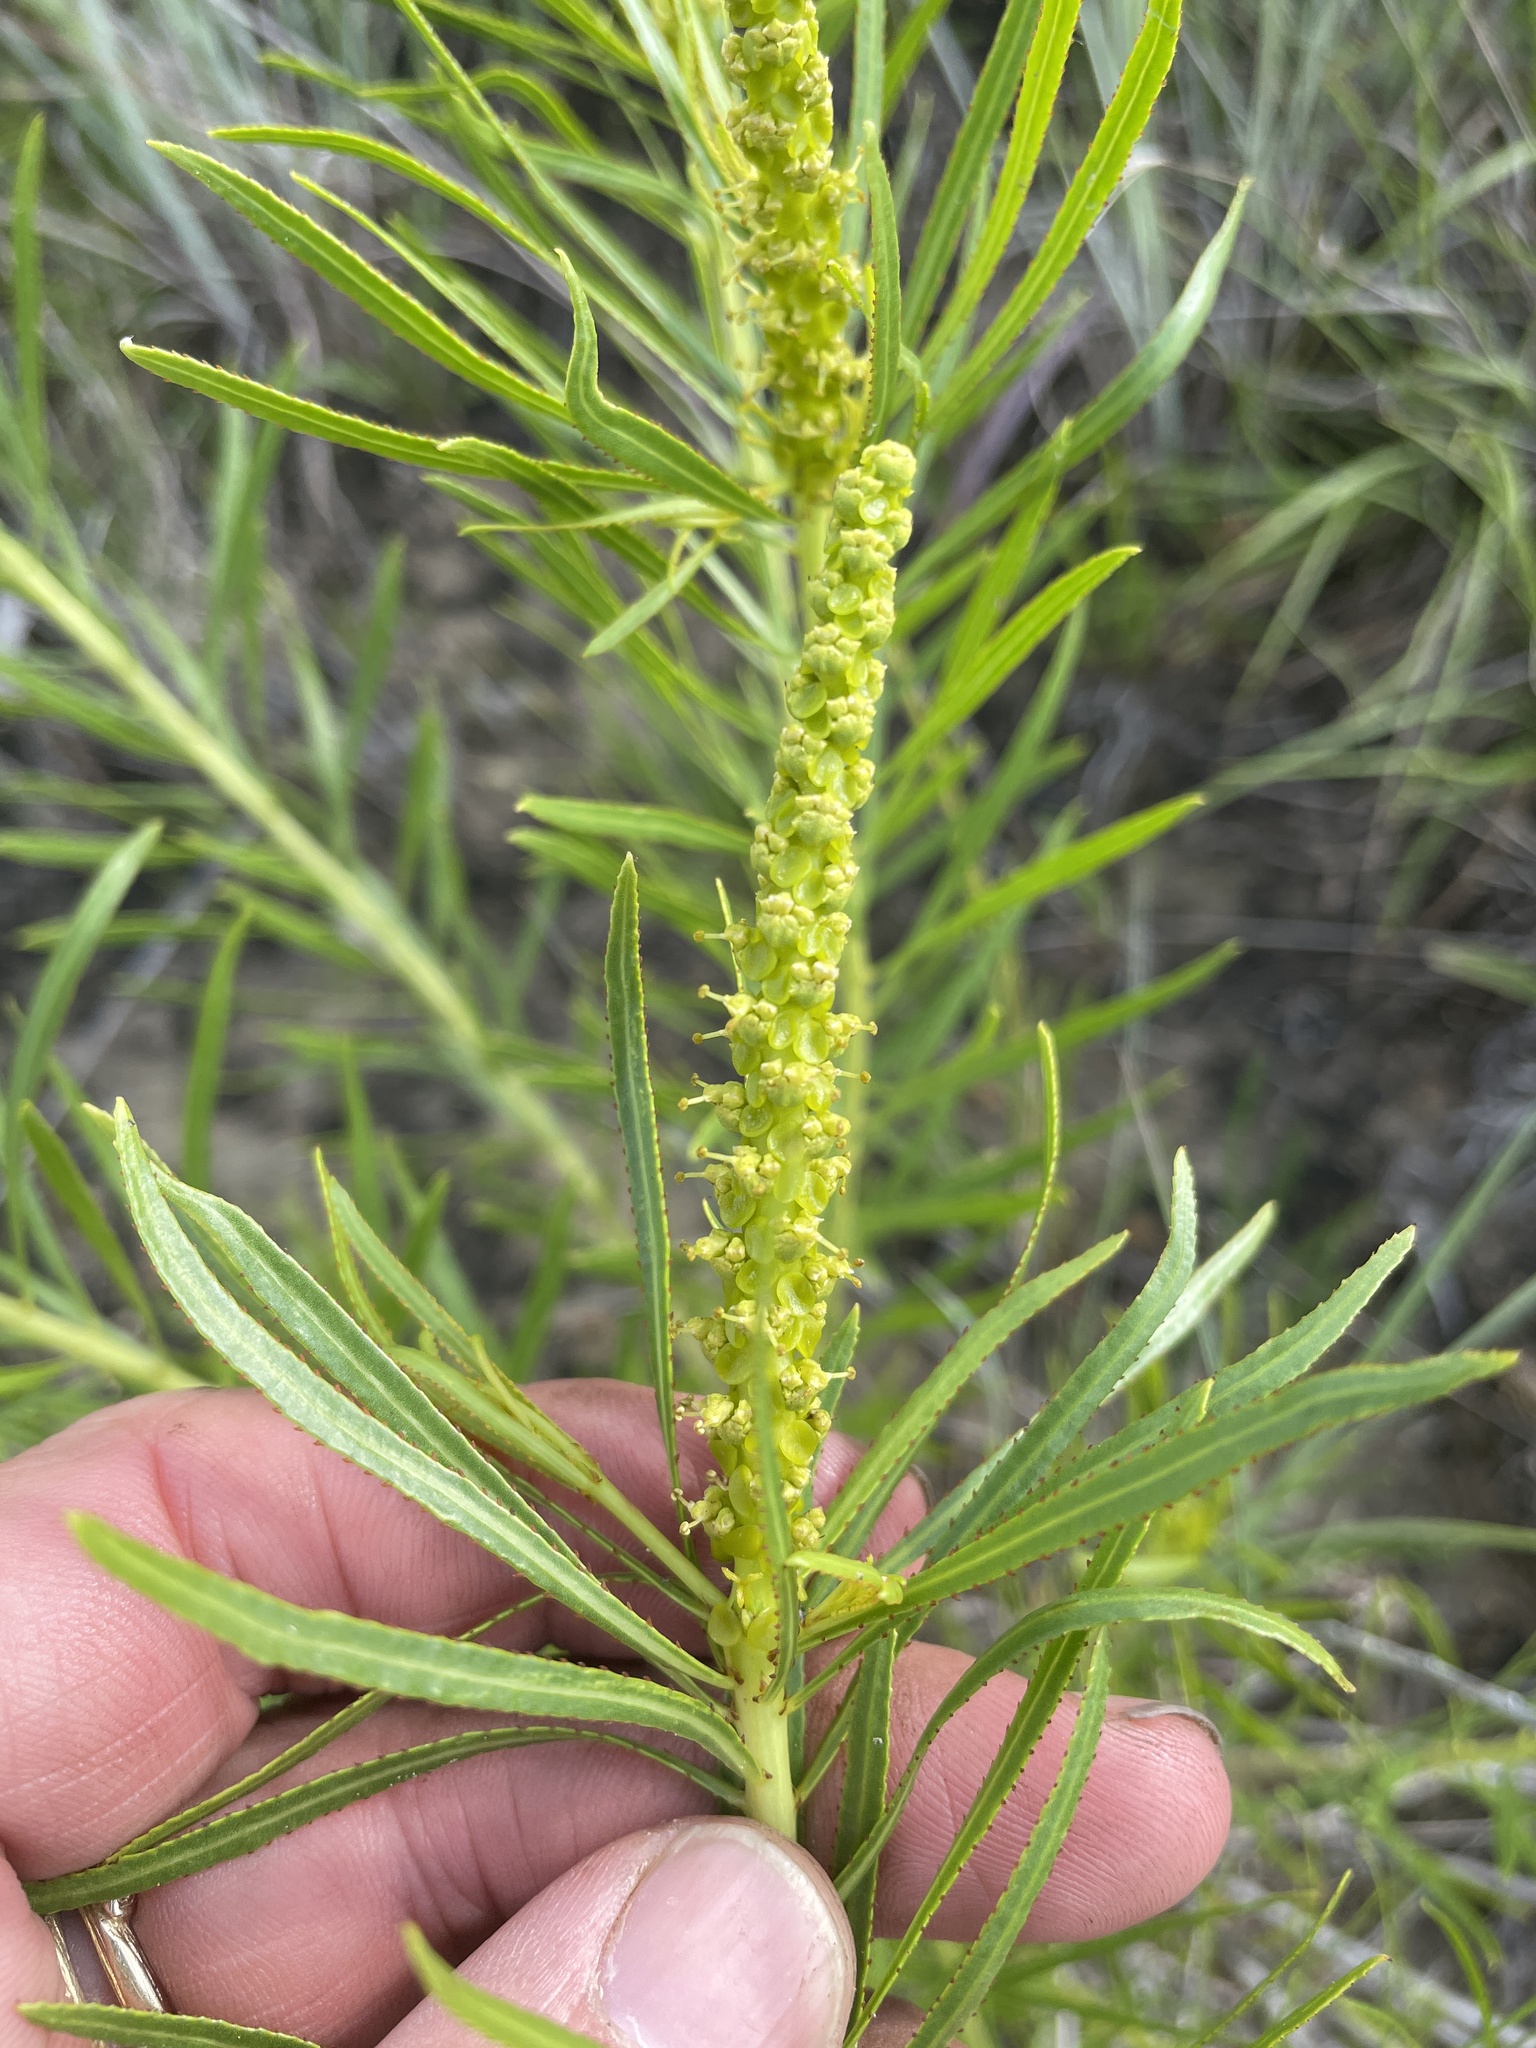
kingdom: Plantae
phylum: Tracheophyta
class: Magnoliopsida
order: Malpighiales
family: Euphorbiaceae
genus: Stillingia
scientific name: Stillingia texana
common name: Texas stillingia
